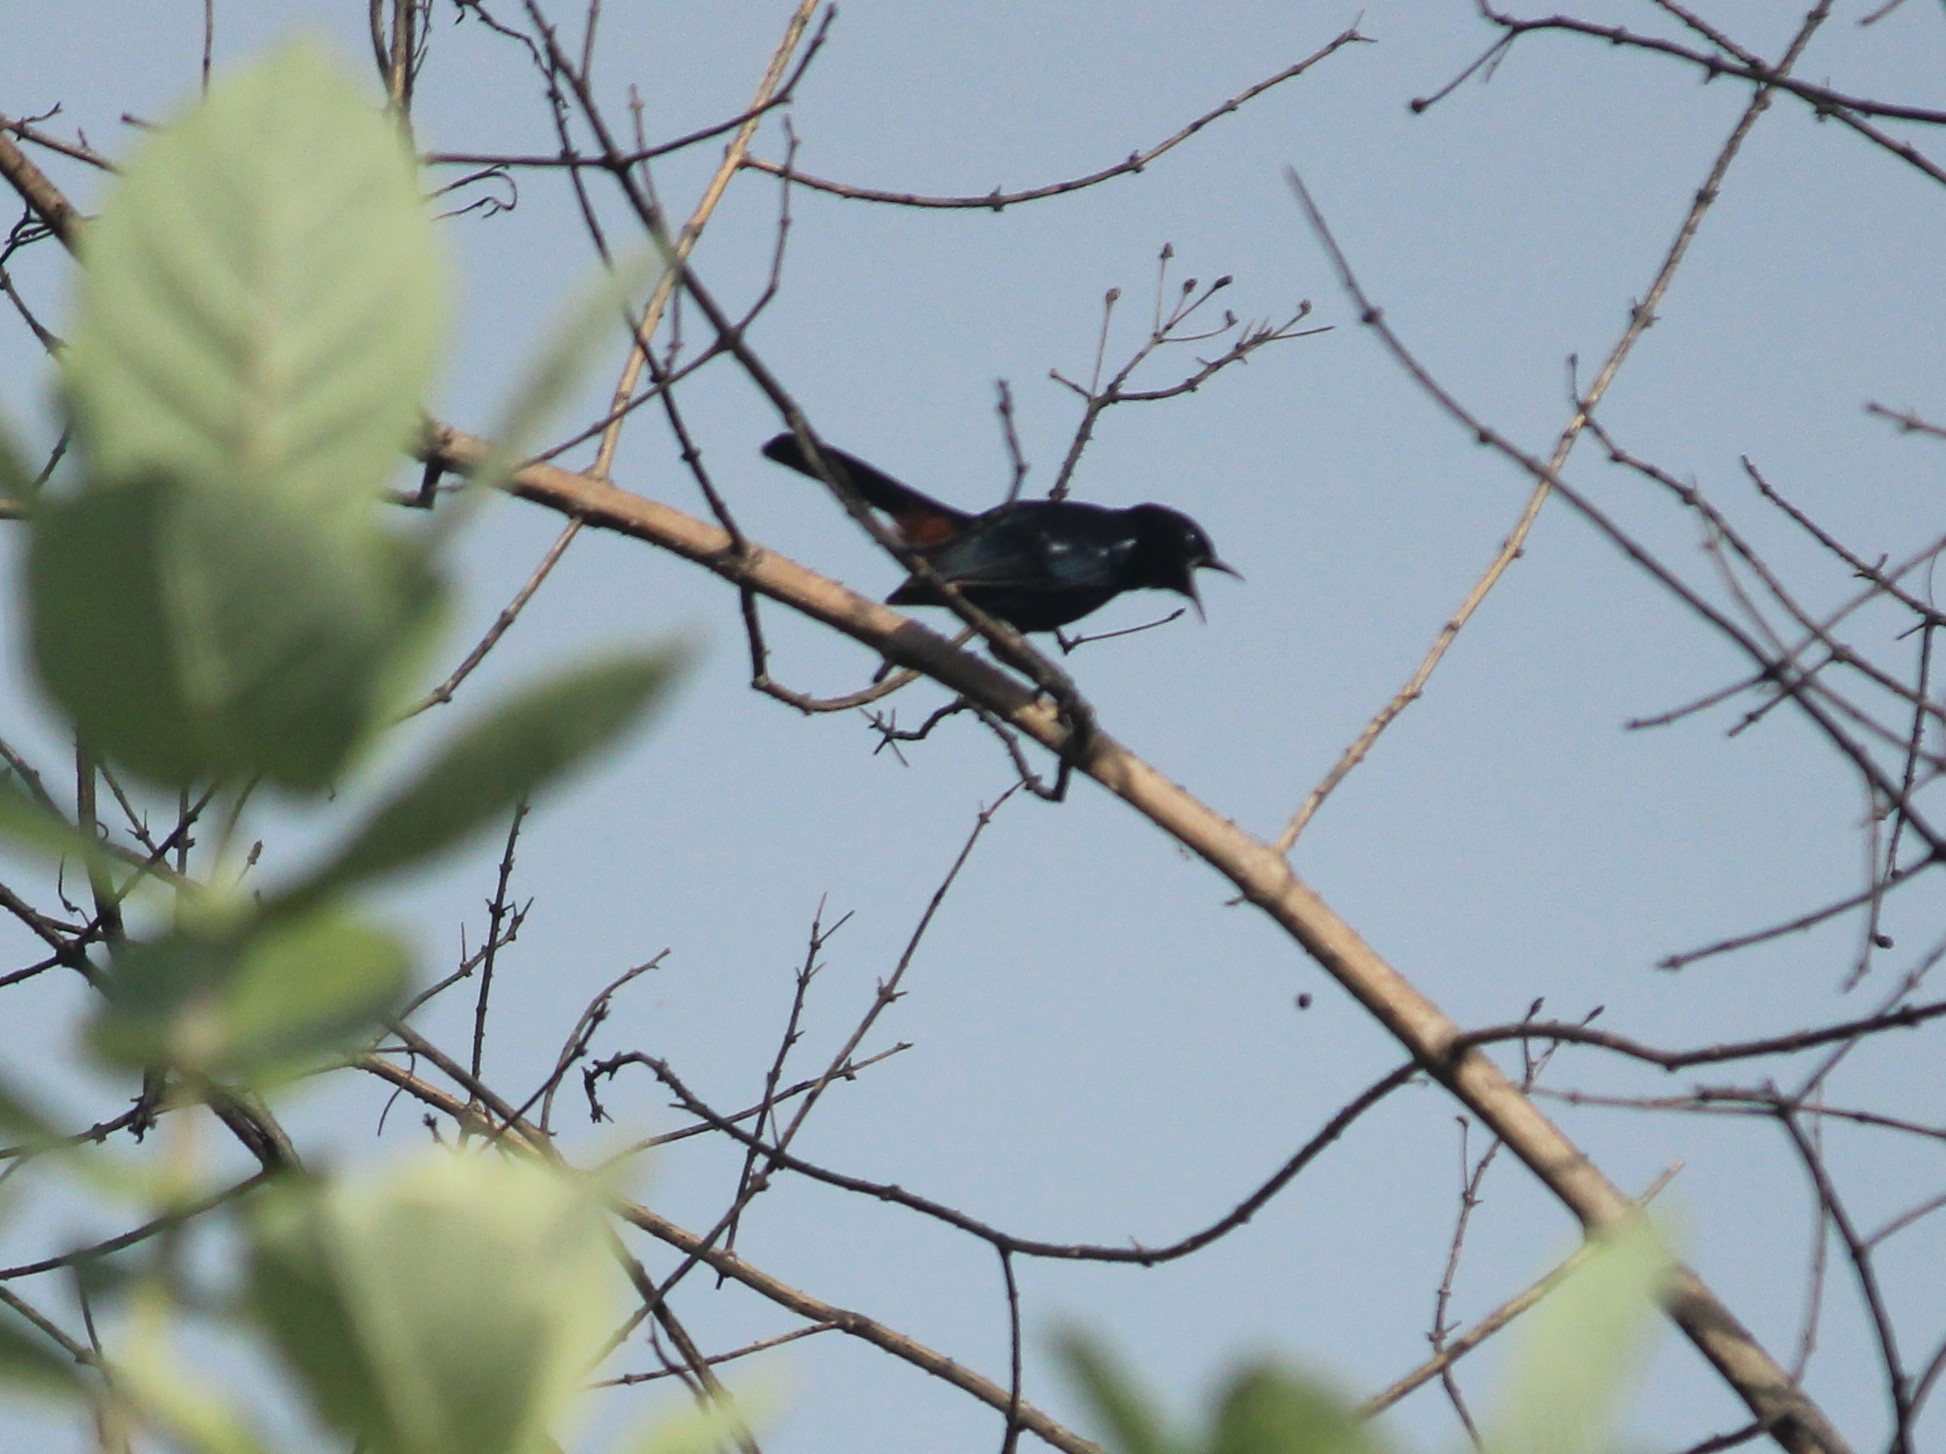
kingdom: Animalia
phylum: Chordata
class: Aves
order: Passeriformes
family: Muscicapidae
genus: Saxicoloides
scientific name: Saxicoloides fulicatus
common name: Indian robin
